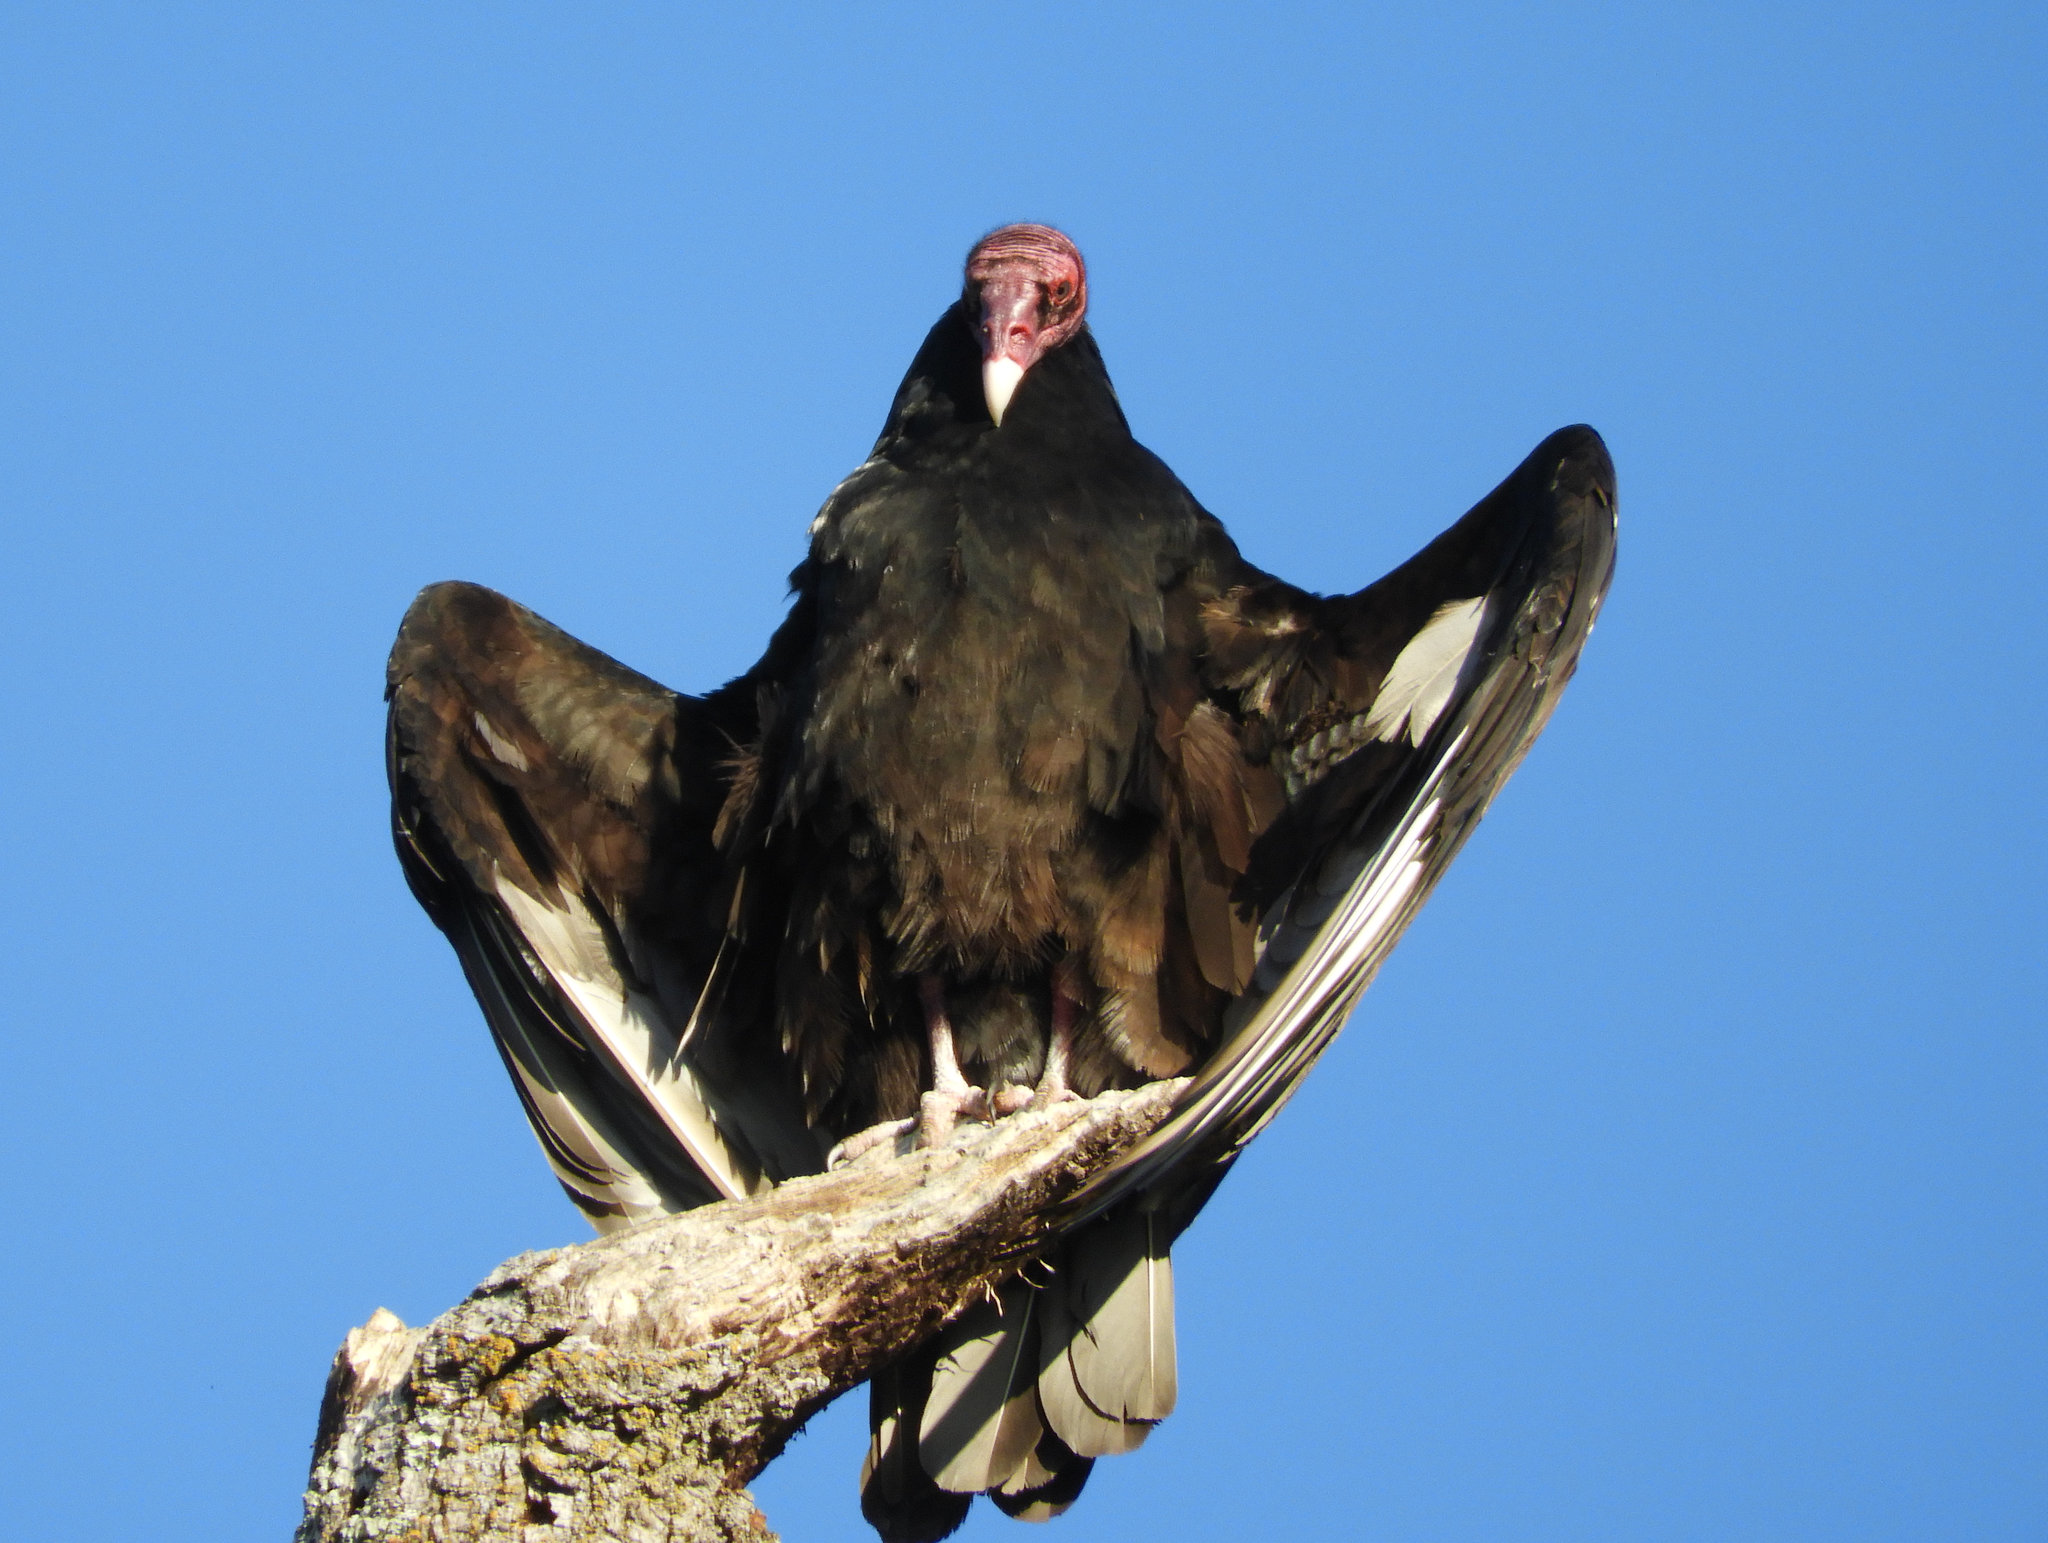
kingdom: Animalia
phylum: Chordata
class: Aves
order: Accipitriformes
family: Cathartidae
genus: Cathartes
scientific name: Cathartes aura
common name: Turkey vulture
